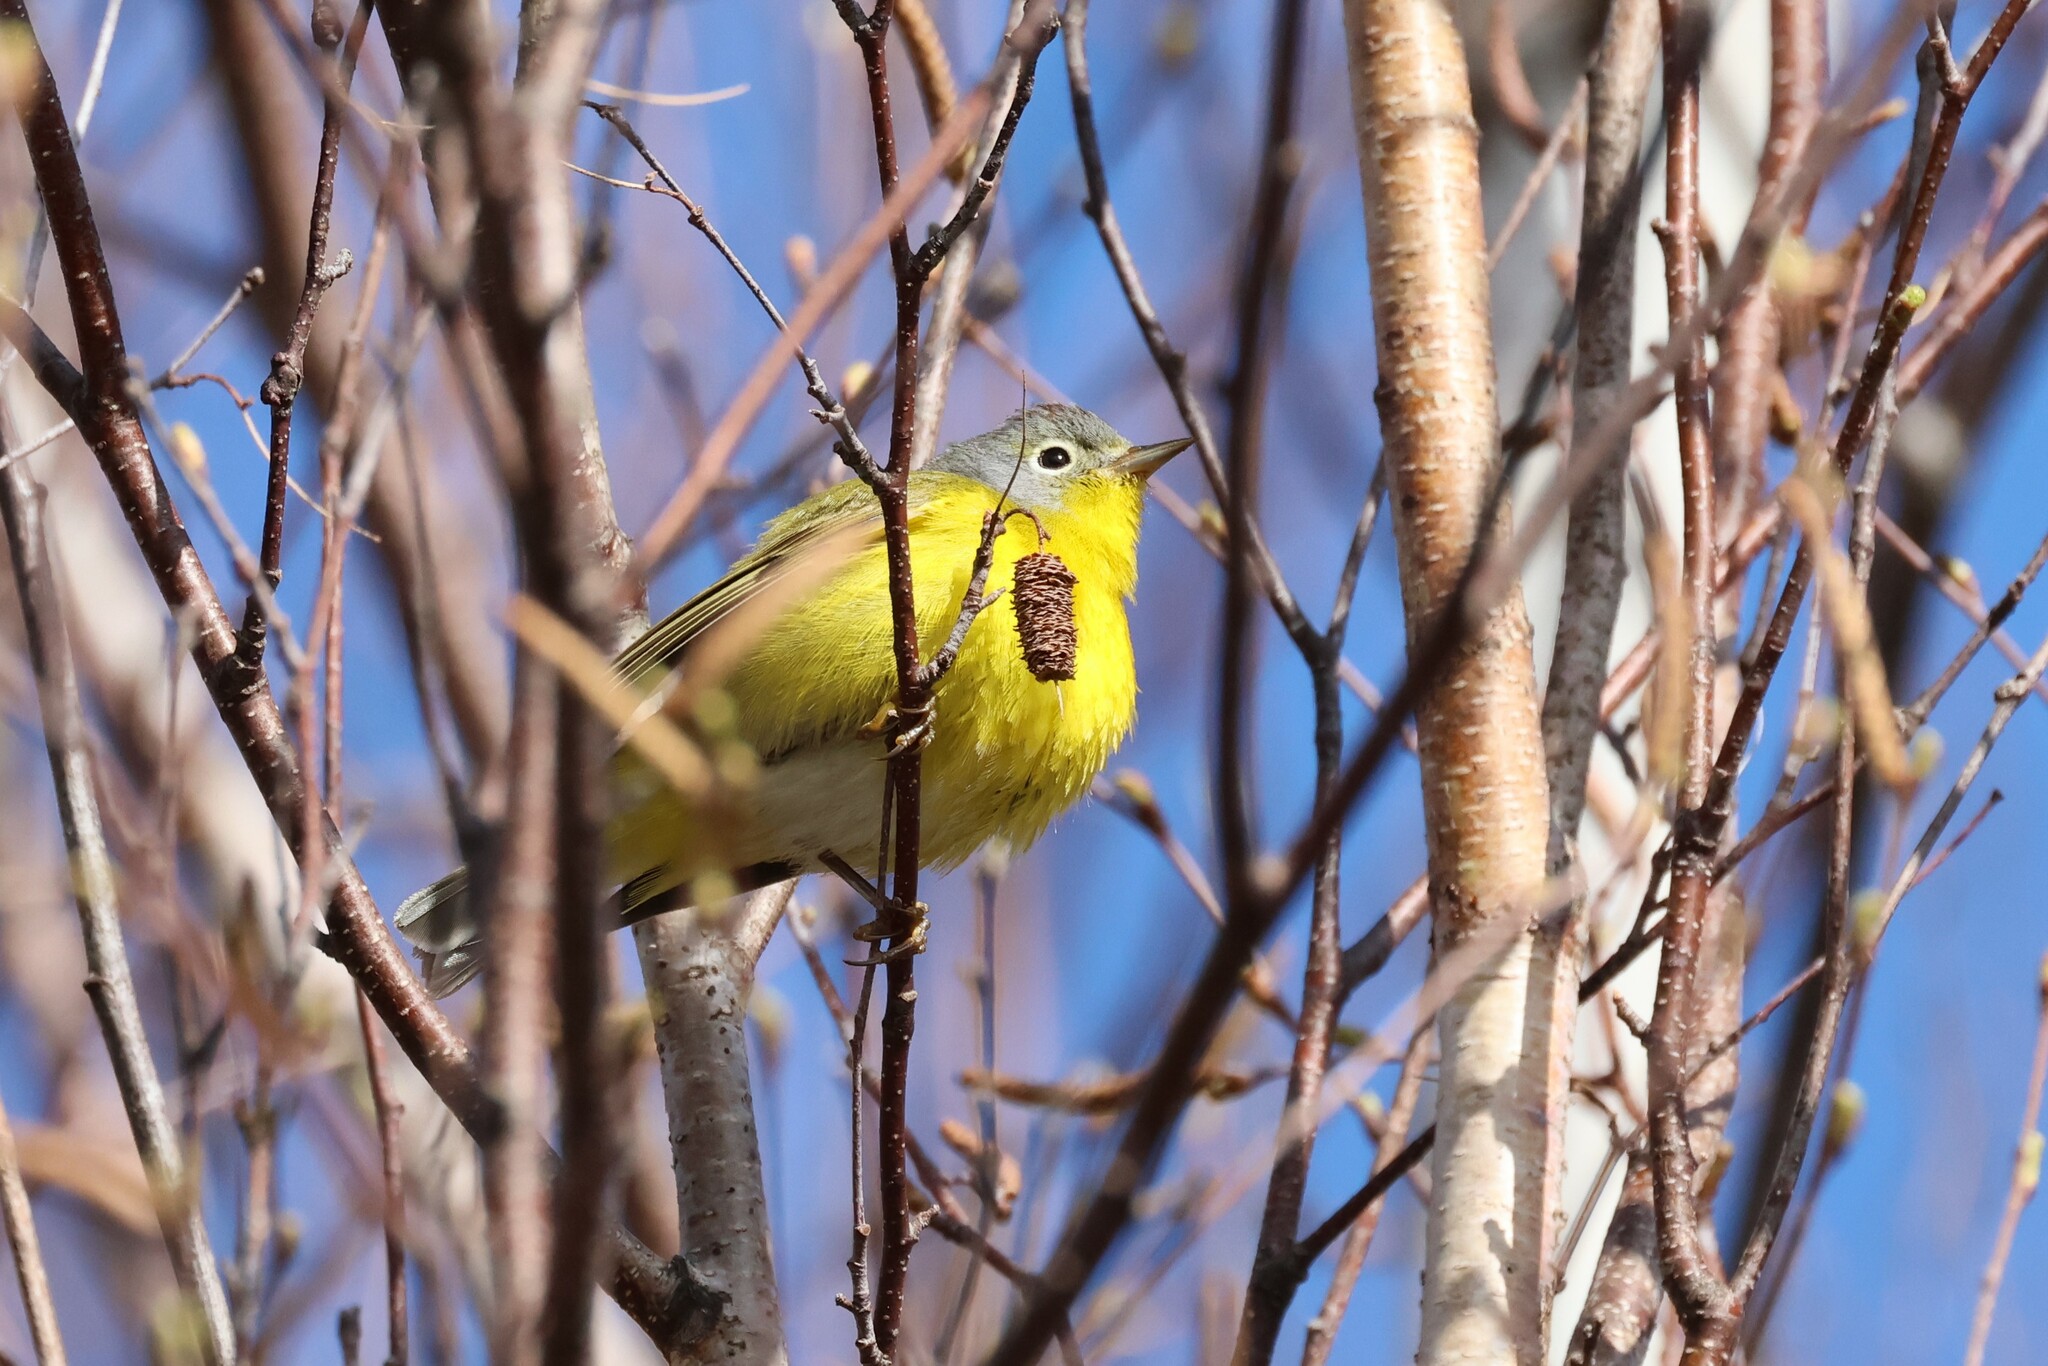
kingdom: Animalia
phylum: Chordata
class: Aves
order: Passeriformes
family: Parulidae
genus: Leiothlypis
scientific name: Leiothlypis ruficapilla
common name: Nashville warbler
